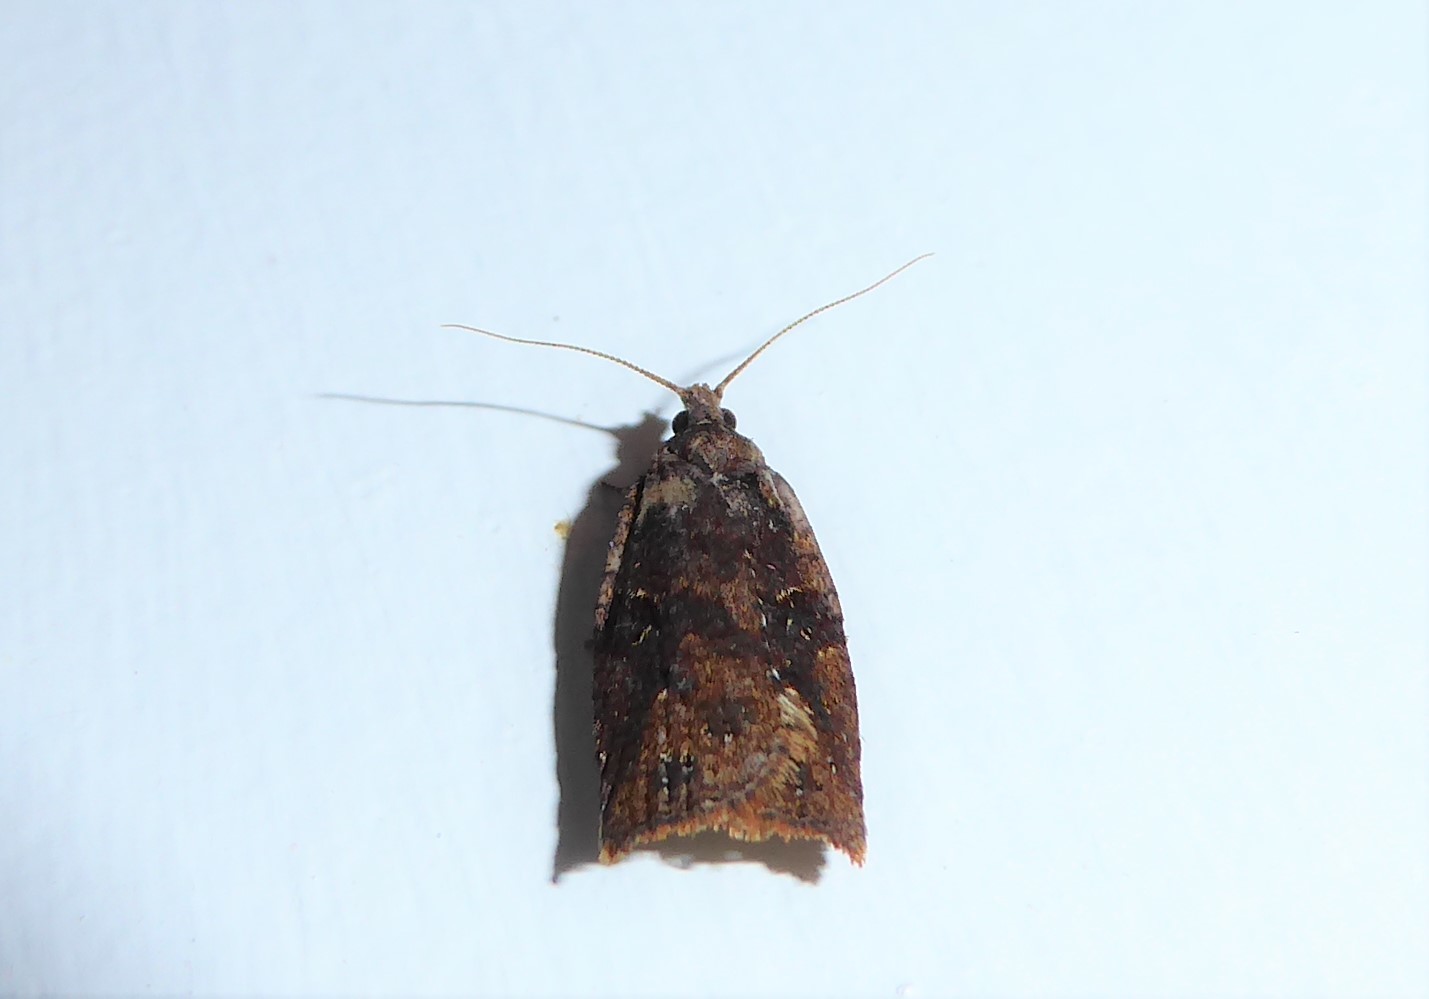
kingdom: Animalia
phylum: Arthropoda
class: Insecta
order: Lepidoptera
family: Tortricidae
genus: Ctenopseustis
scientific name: Ctenopseustis obliquana
